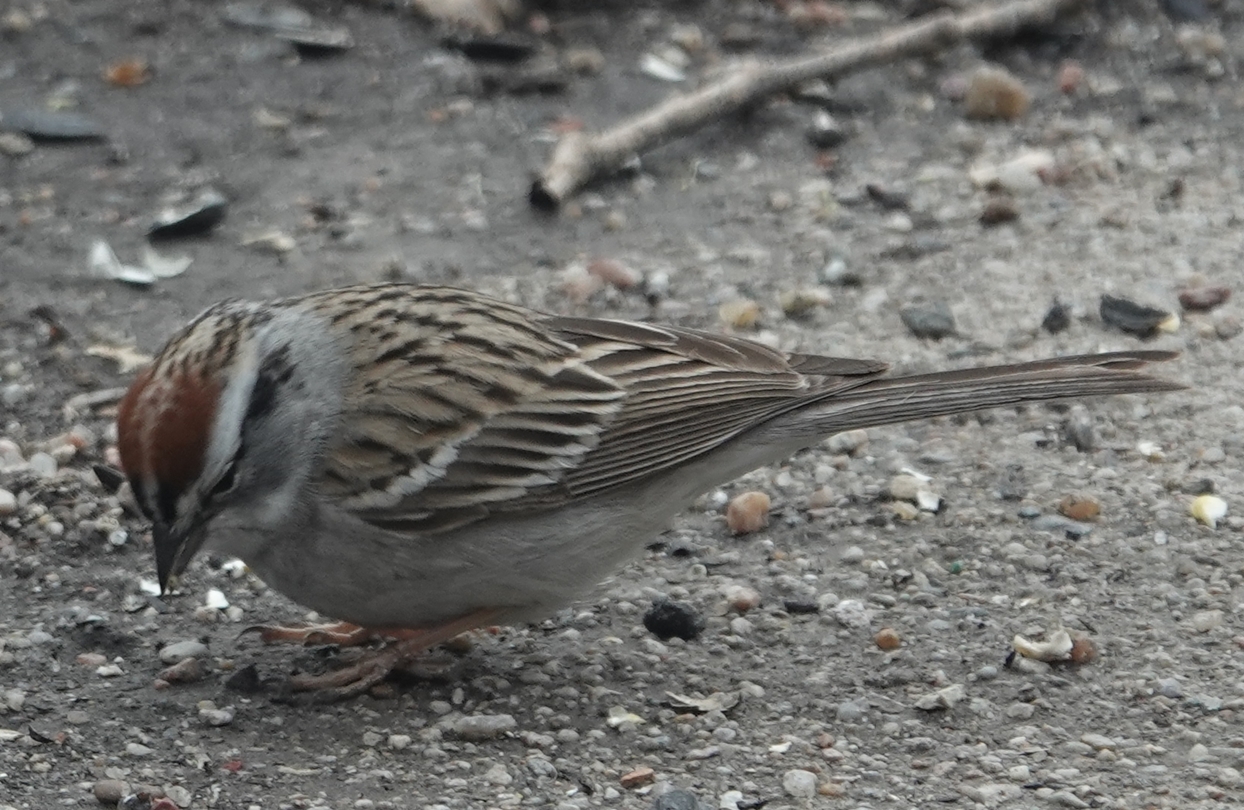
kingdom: Animalia
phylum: Chordata
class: Aves
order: Passeriformes
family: Passerellidae
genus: Spizella
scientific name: Spizella passerina
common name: Chipping sparrow
